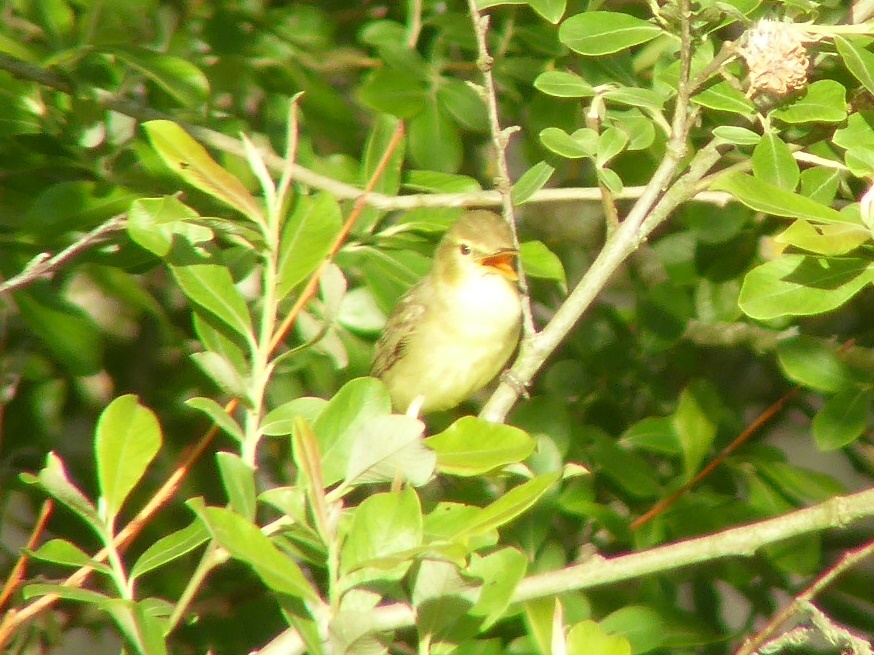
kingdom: Animalia
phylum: Chordata
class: Aves
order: Passeriformes
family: Acrocephalidae
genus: Hippolais
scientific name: Hippolais polyglotta
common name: Melodious warbler
